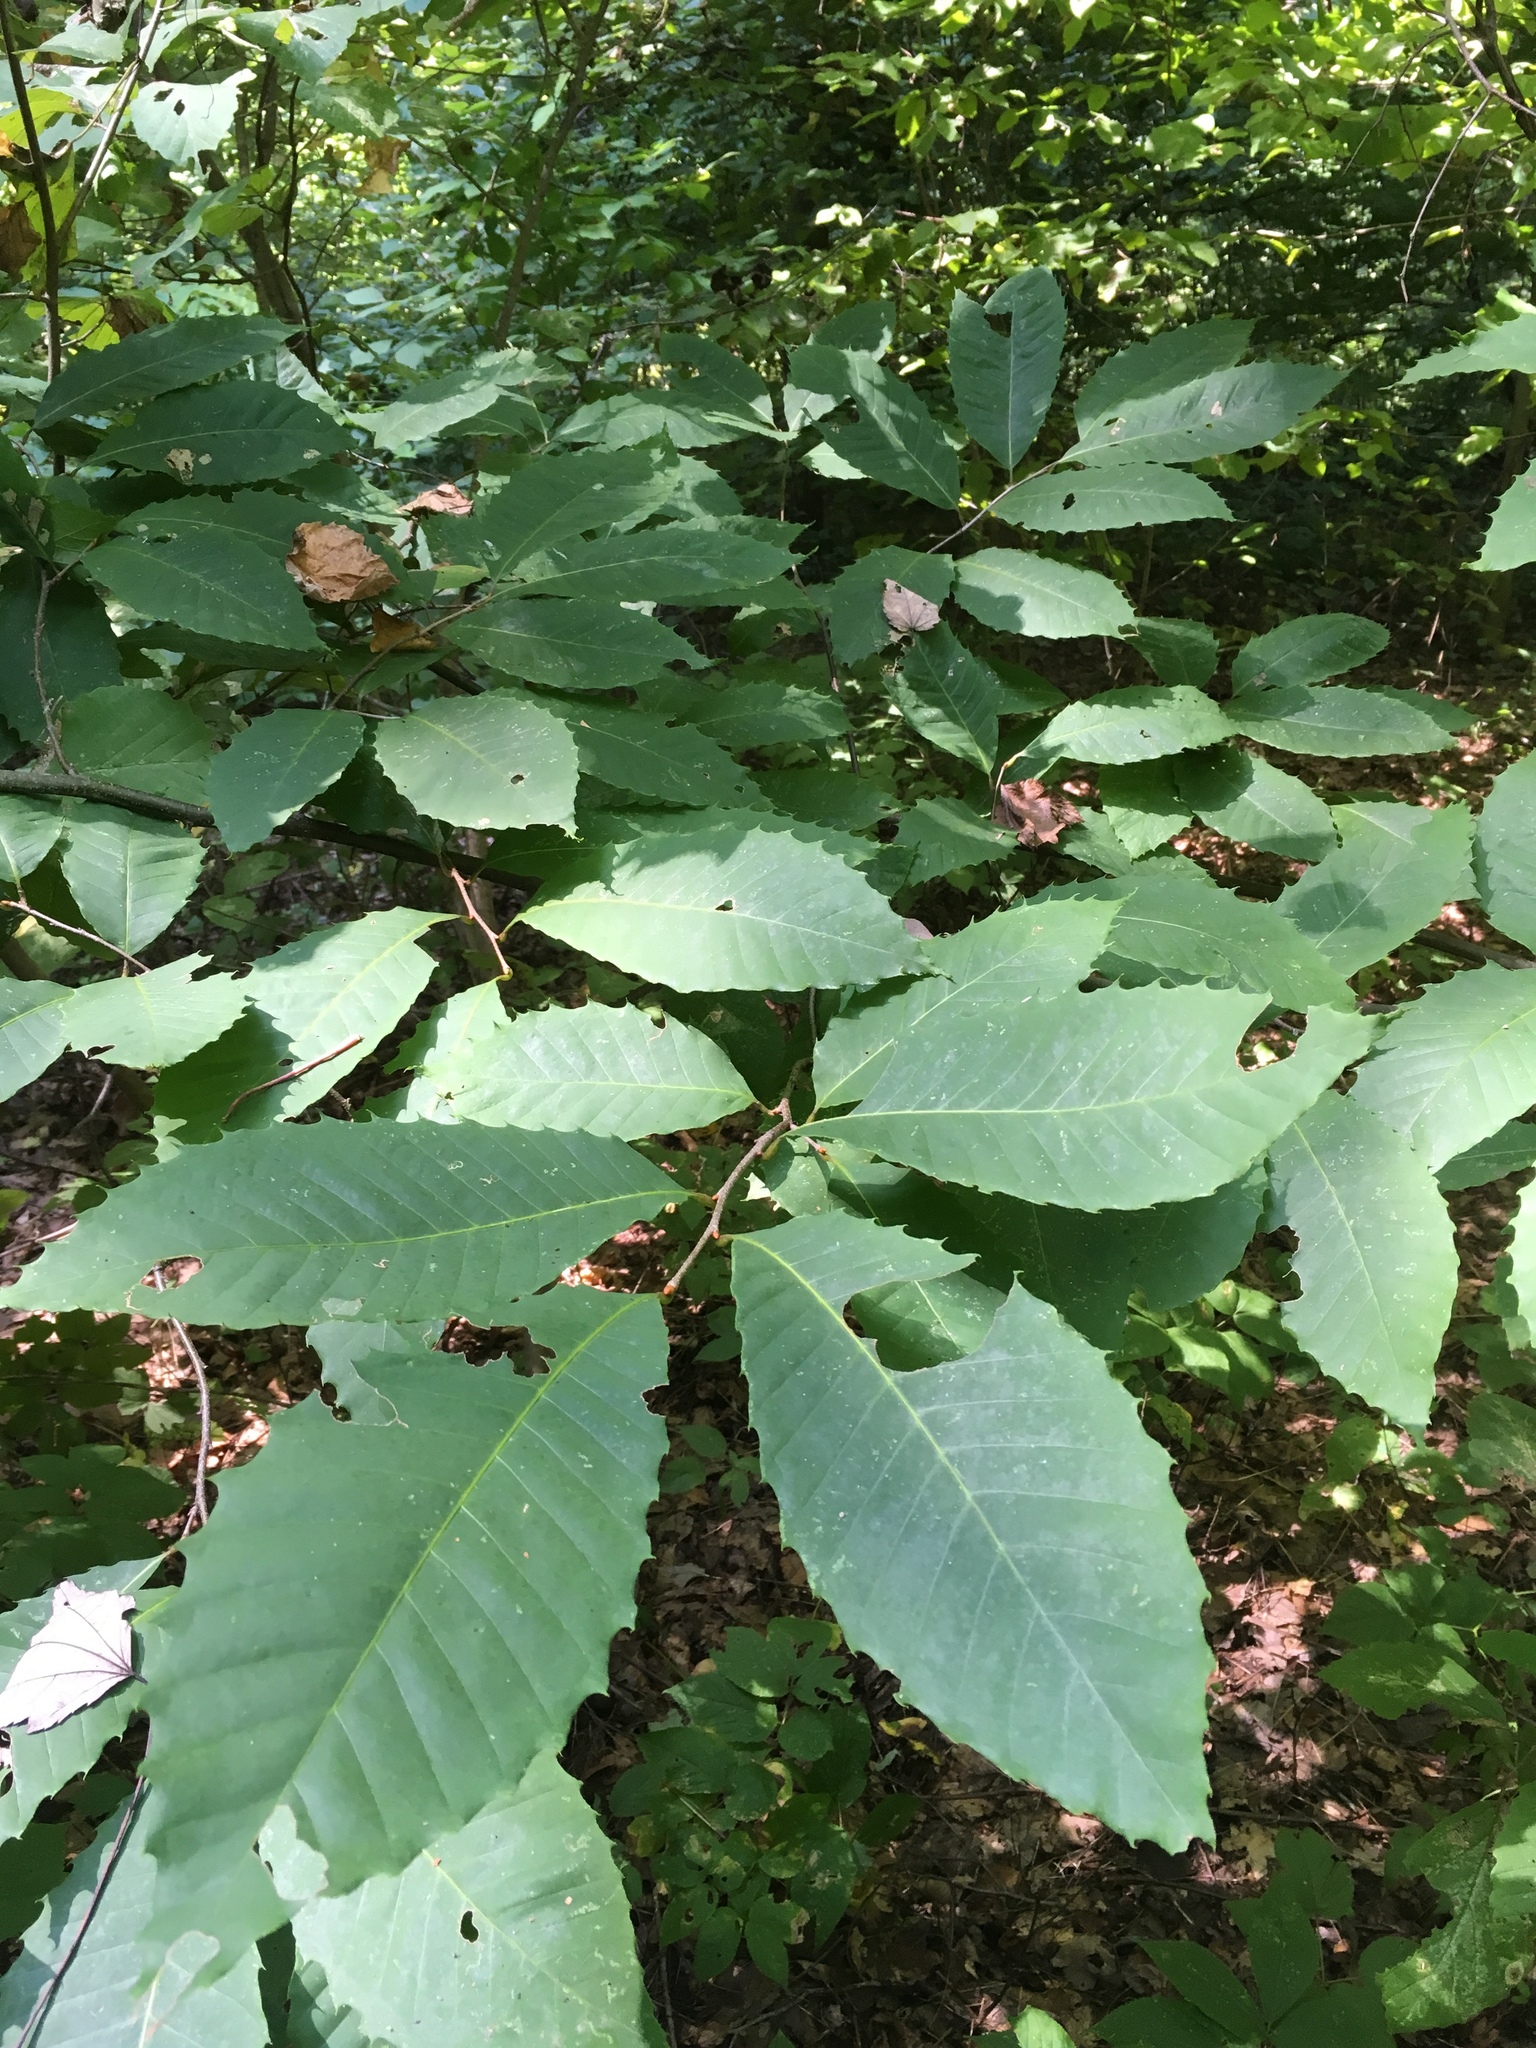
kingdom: Plantae
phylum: Tracheophyta
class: Magnoliopsida
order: Fagales
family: Fagaceae
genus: Castanea
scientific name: Castanea dentata
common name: American chestnut
